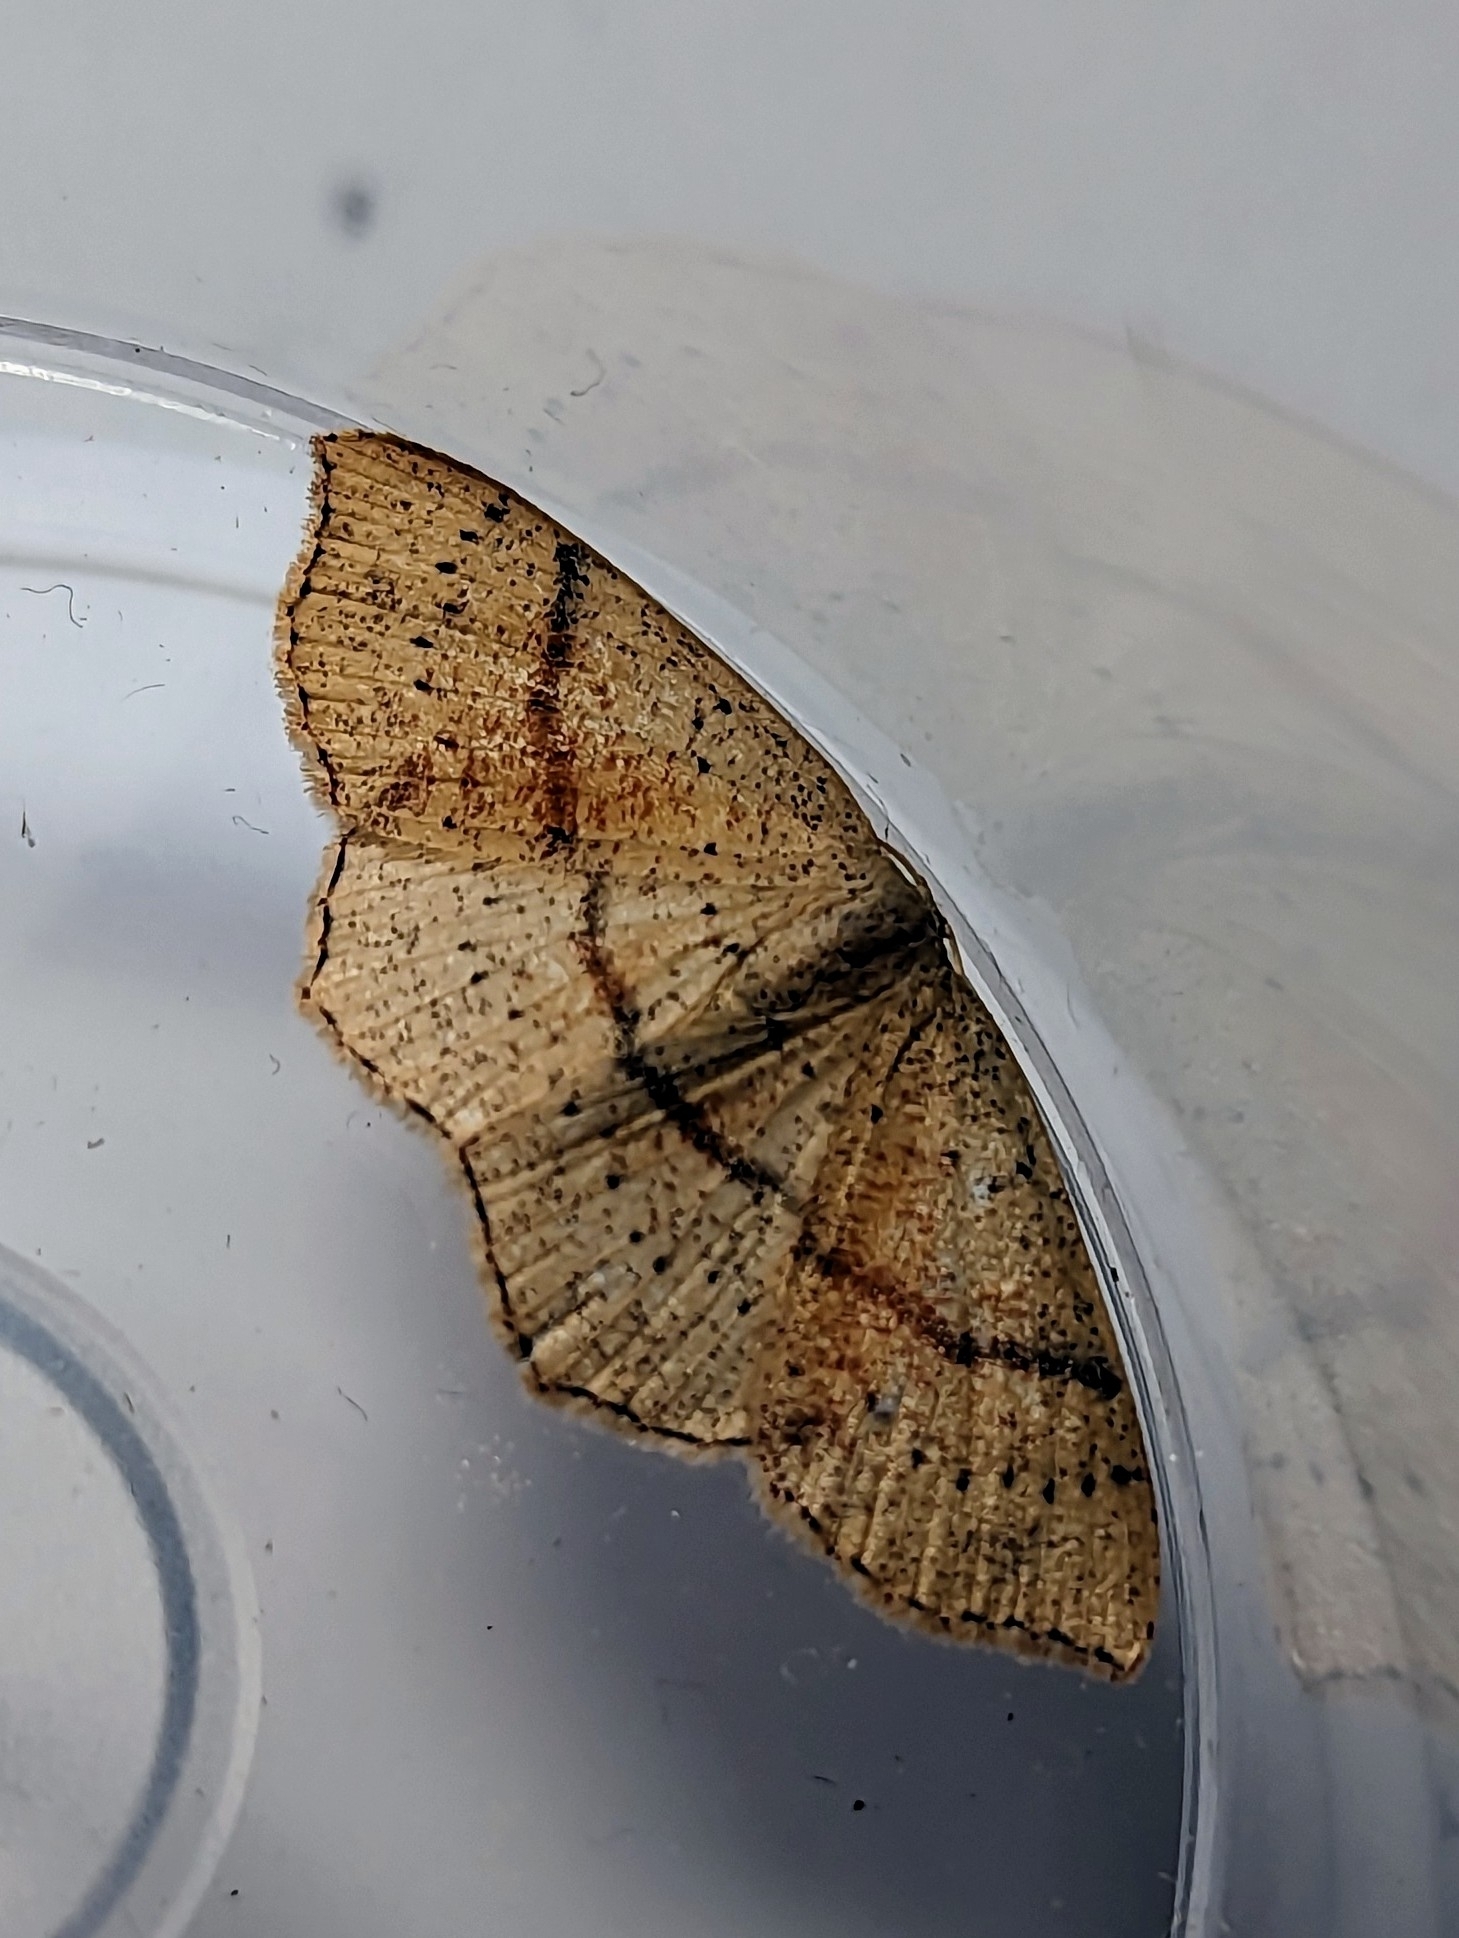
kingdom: Animalia
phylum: Arthropoda
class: Insecta
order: Lepidoptera
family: Geometridae
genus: Cyclophora
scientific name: Cyclophora punctaria
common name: Maiden's blush
